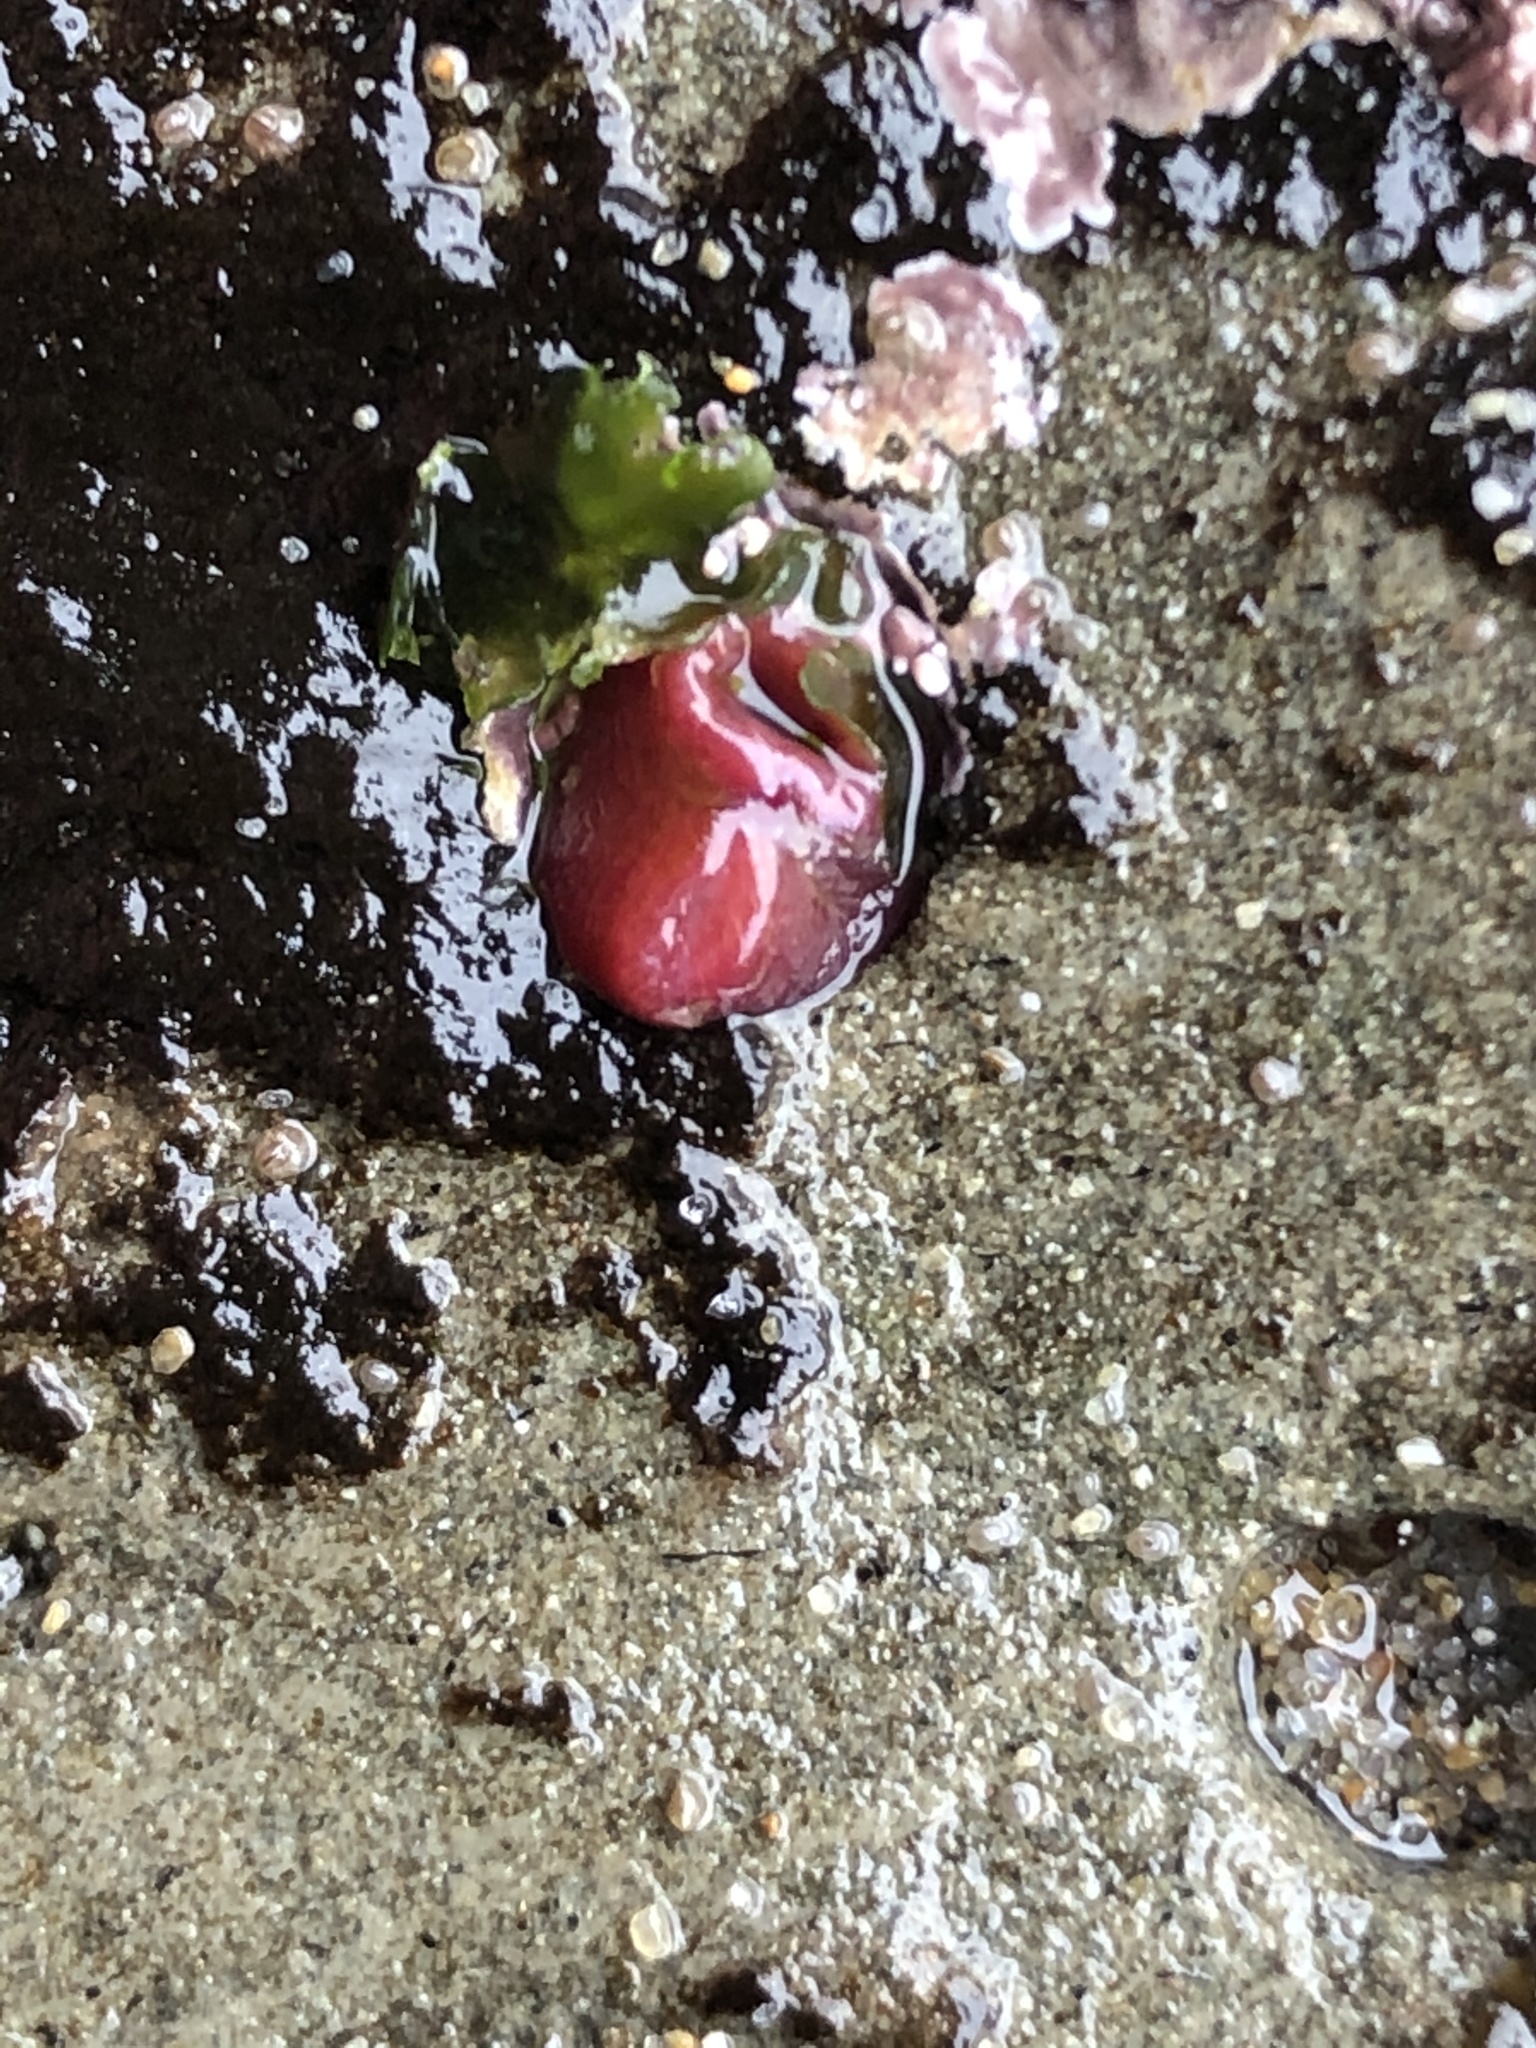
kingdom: Animalia
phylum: Mollusca
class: Bivalvia
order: Adapedonta
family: Hiatellidae
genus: Hiatella
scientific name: Hiatella arctica
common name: Arctic hiatella
